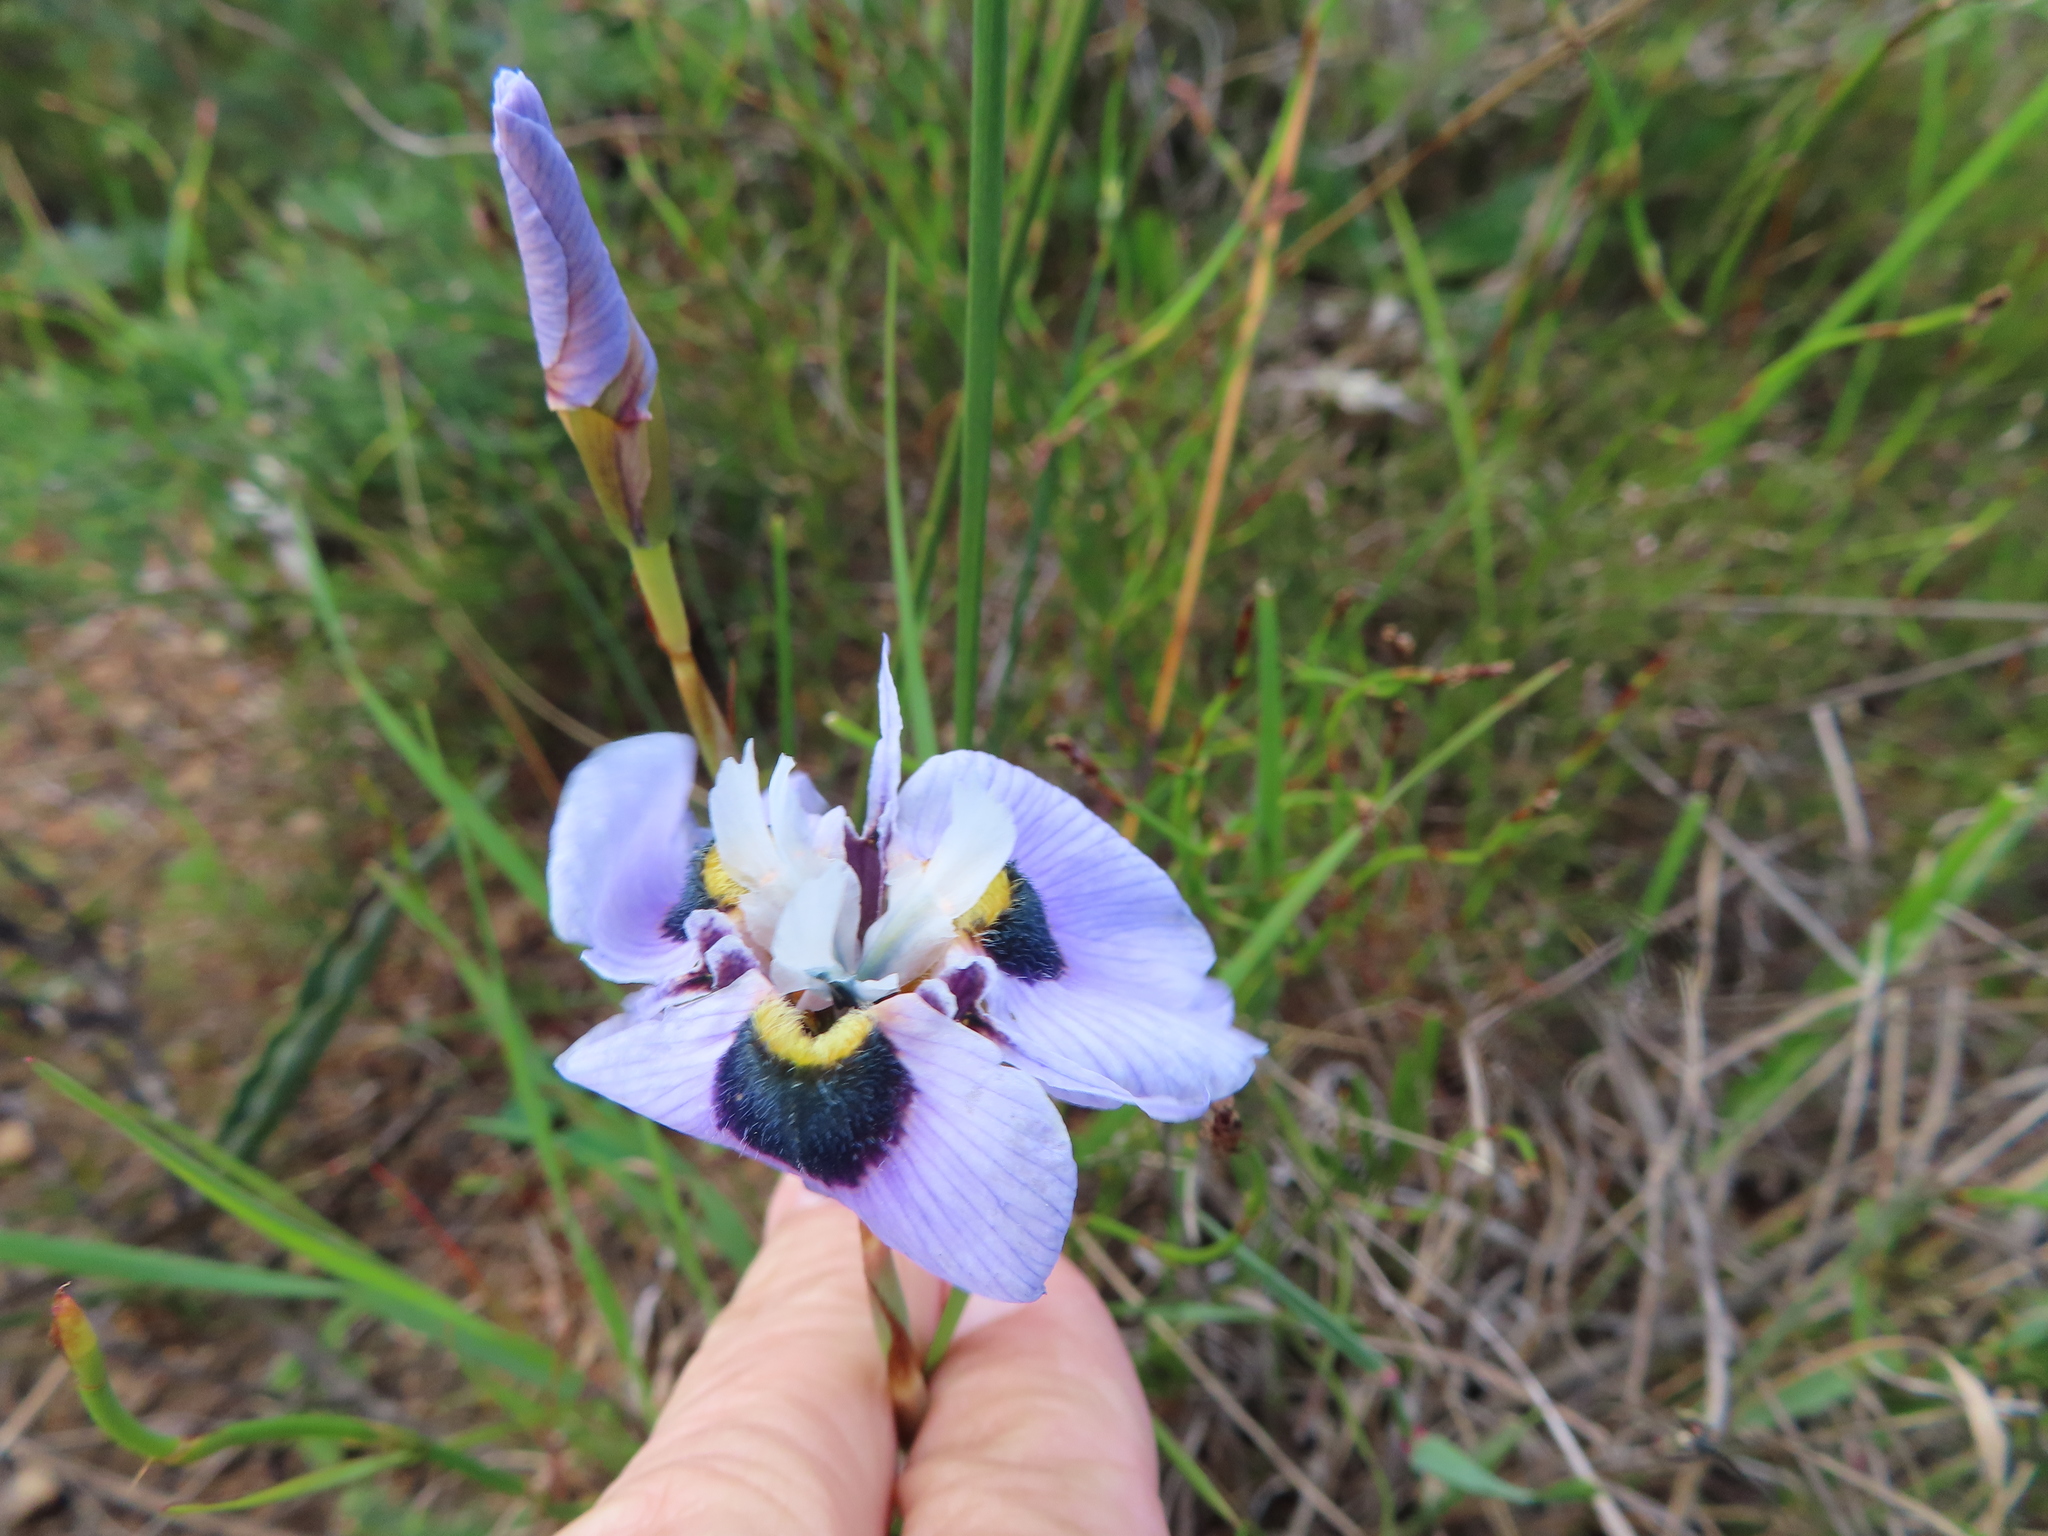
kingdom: Plantae
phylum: Tracheophyta
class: Liliopsida
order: Asparagales
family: Iridaceae
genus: Moraea
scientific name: Moraea villosa
